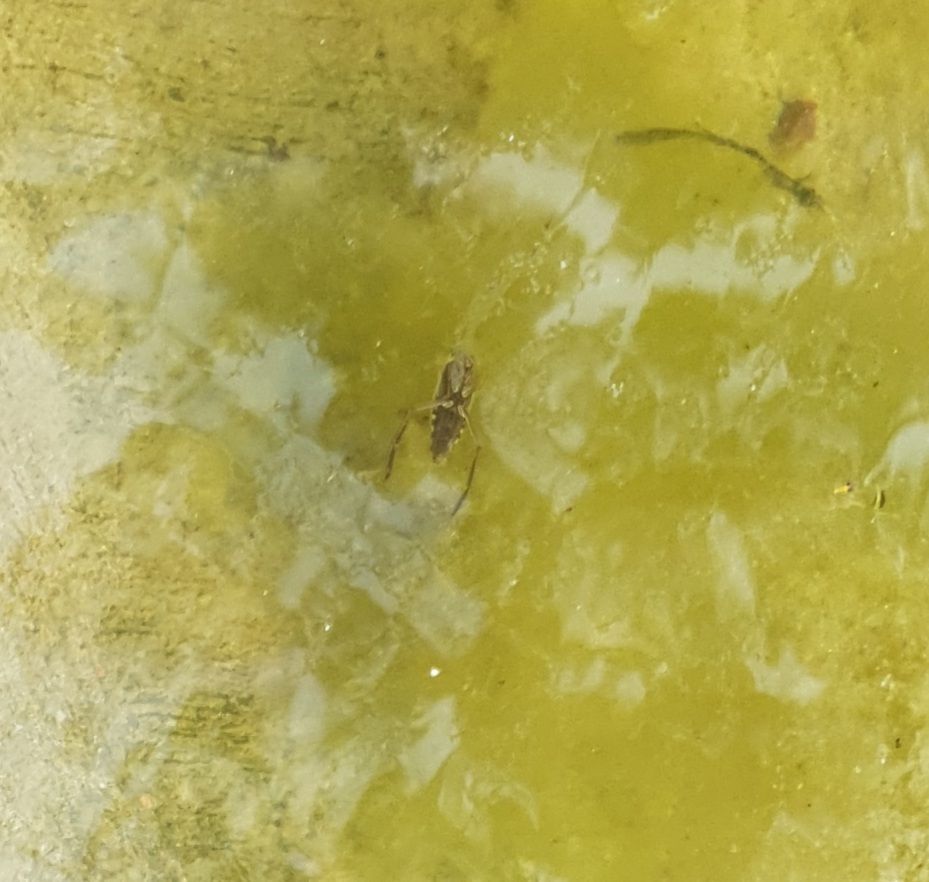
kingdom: Animalia
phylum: Arthropoda
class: Insecta
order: Hemiptera
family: Notonectidae
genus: Notonecta
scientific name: Notonecta
